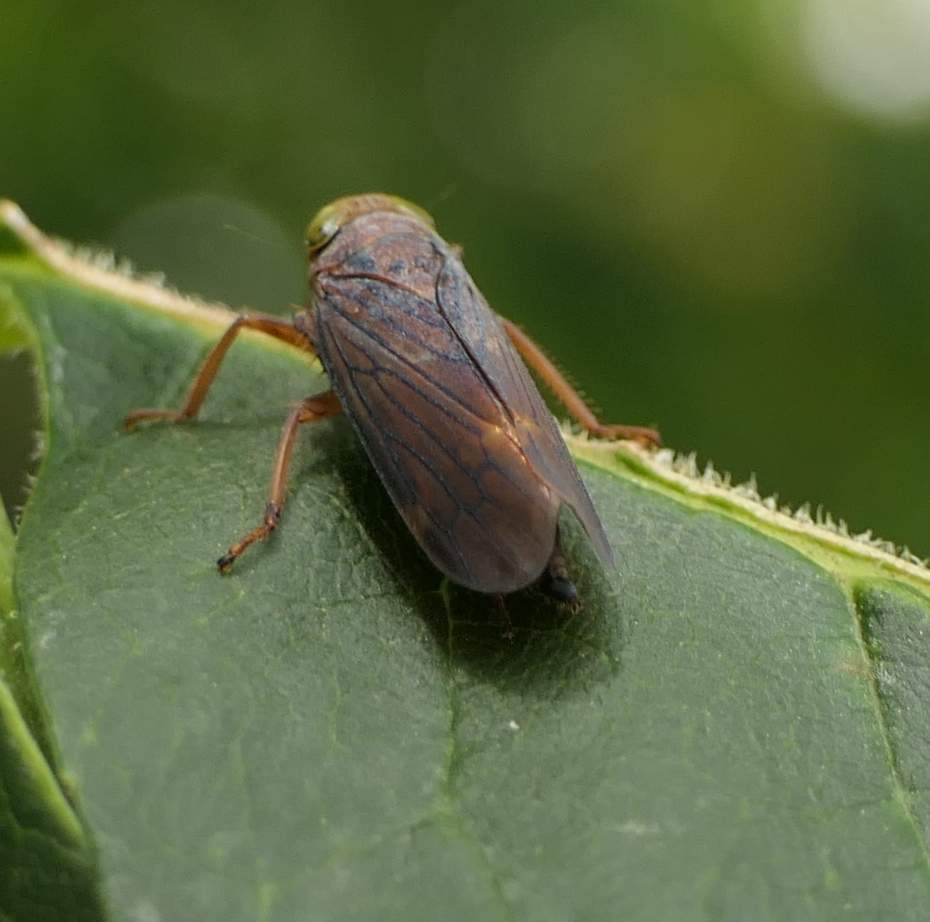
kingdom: Animalia
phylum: Arthropoda
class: Insecta
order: Hemiptera
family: Cicadellidae
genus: Jikradia
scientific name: Jikradia olitoria
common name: Coppery leafhopper
